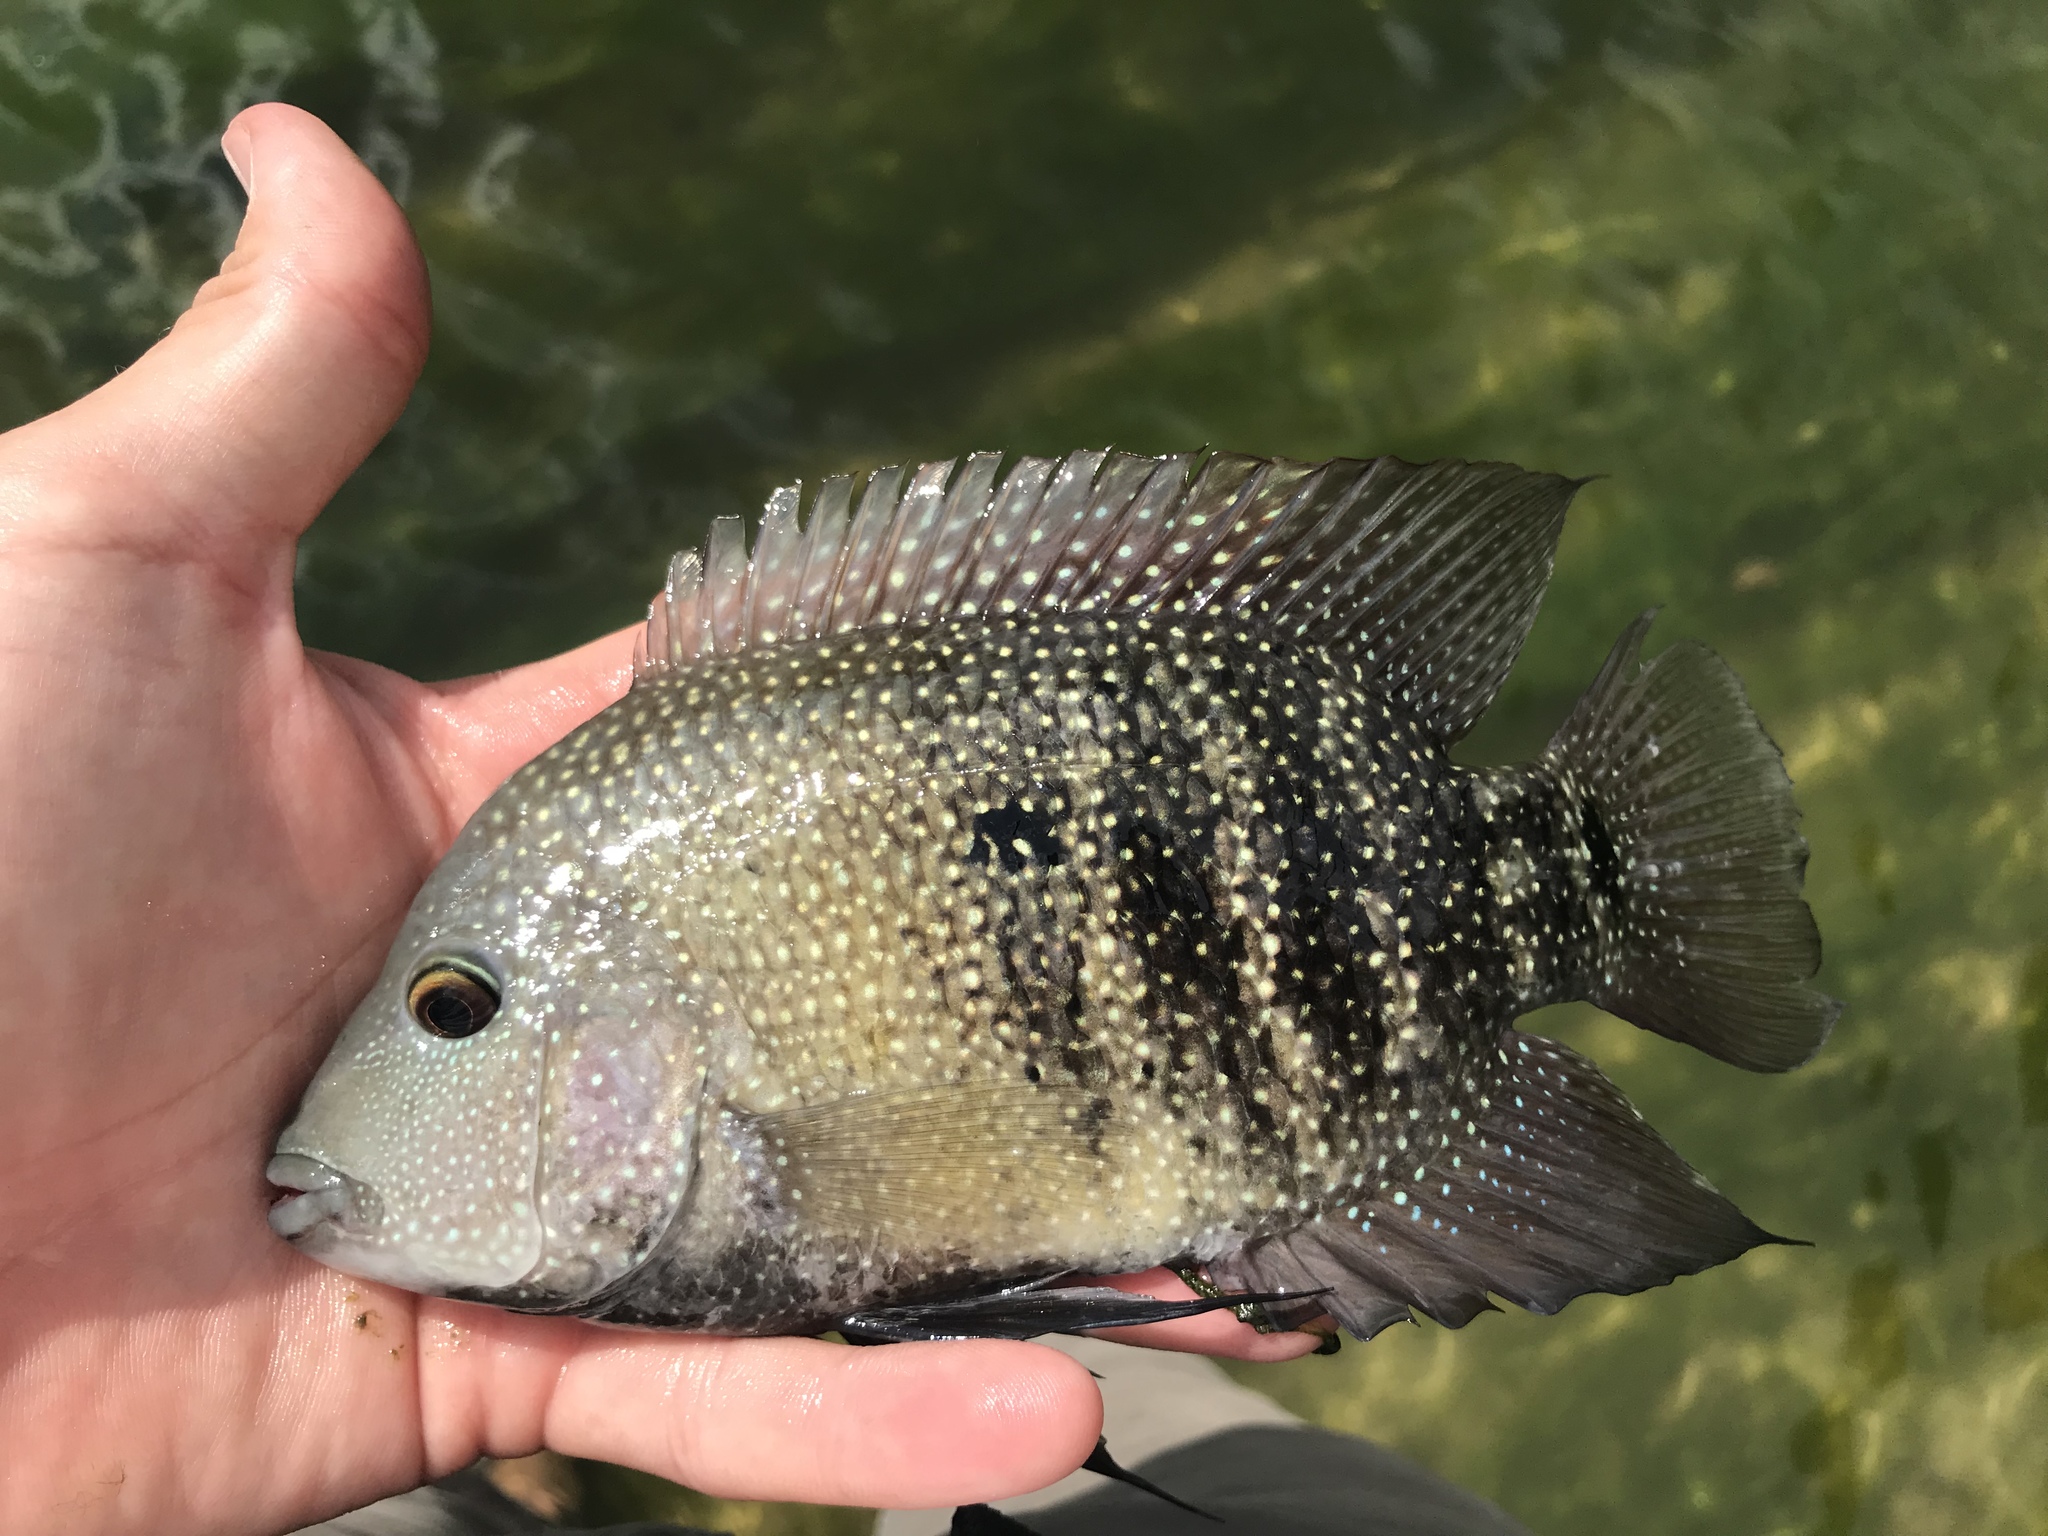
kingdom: Animalia
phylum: Chordata
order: Perciformes
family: Cichlidae
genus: Herichthys
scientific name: Herichthys cyanoguttatus
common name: Rio grande cichlid
